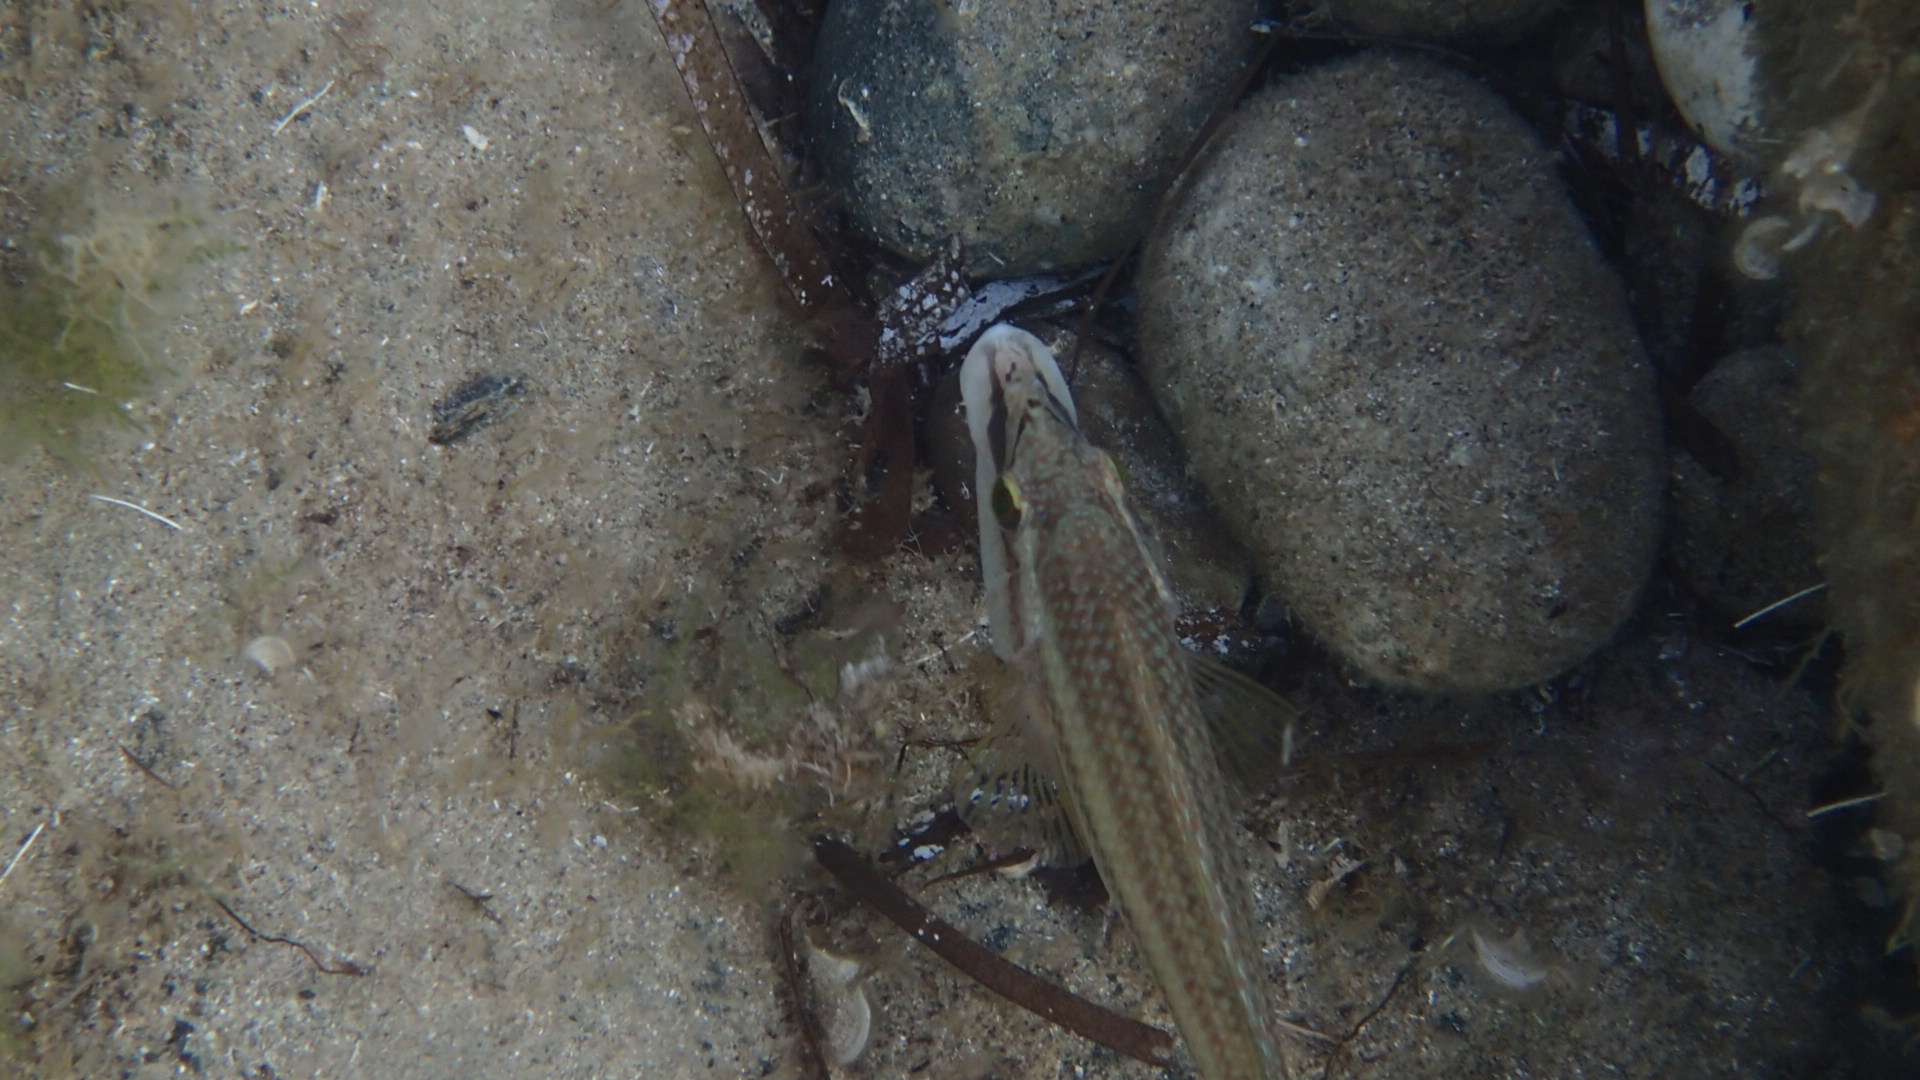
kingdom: Animalia
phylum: Chordata
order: Perciformes
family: Labridae
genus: Symphodus
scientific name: Symphodus tinca
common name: Peacock wrasse
